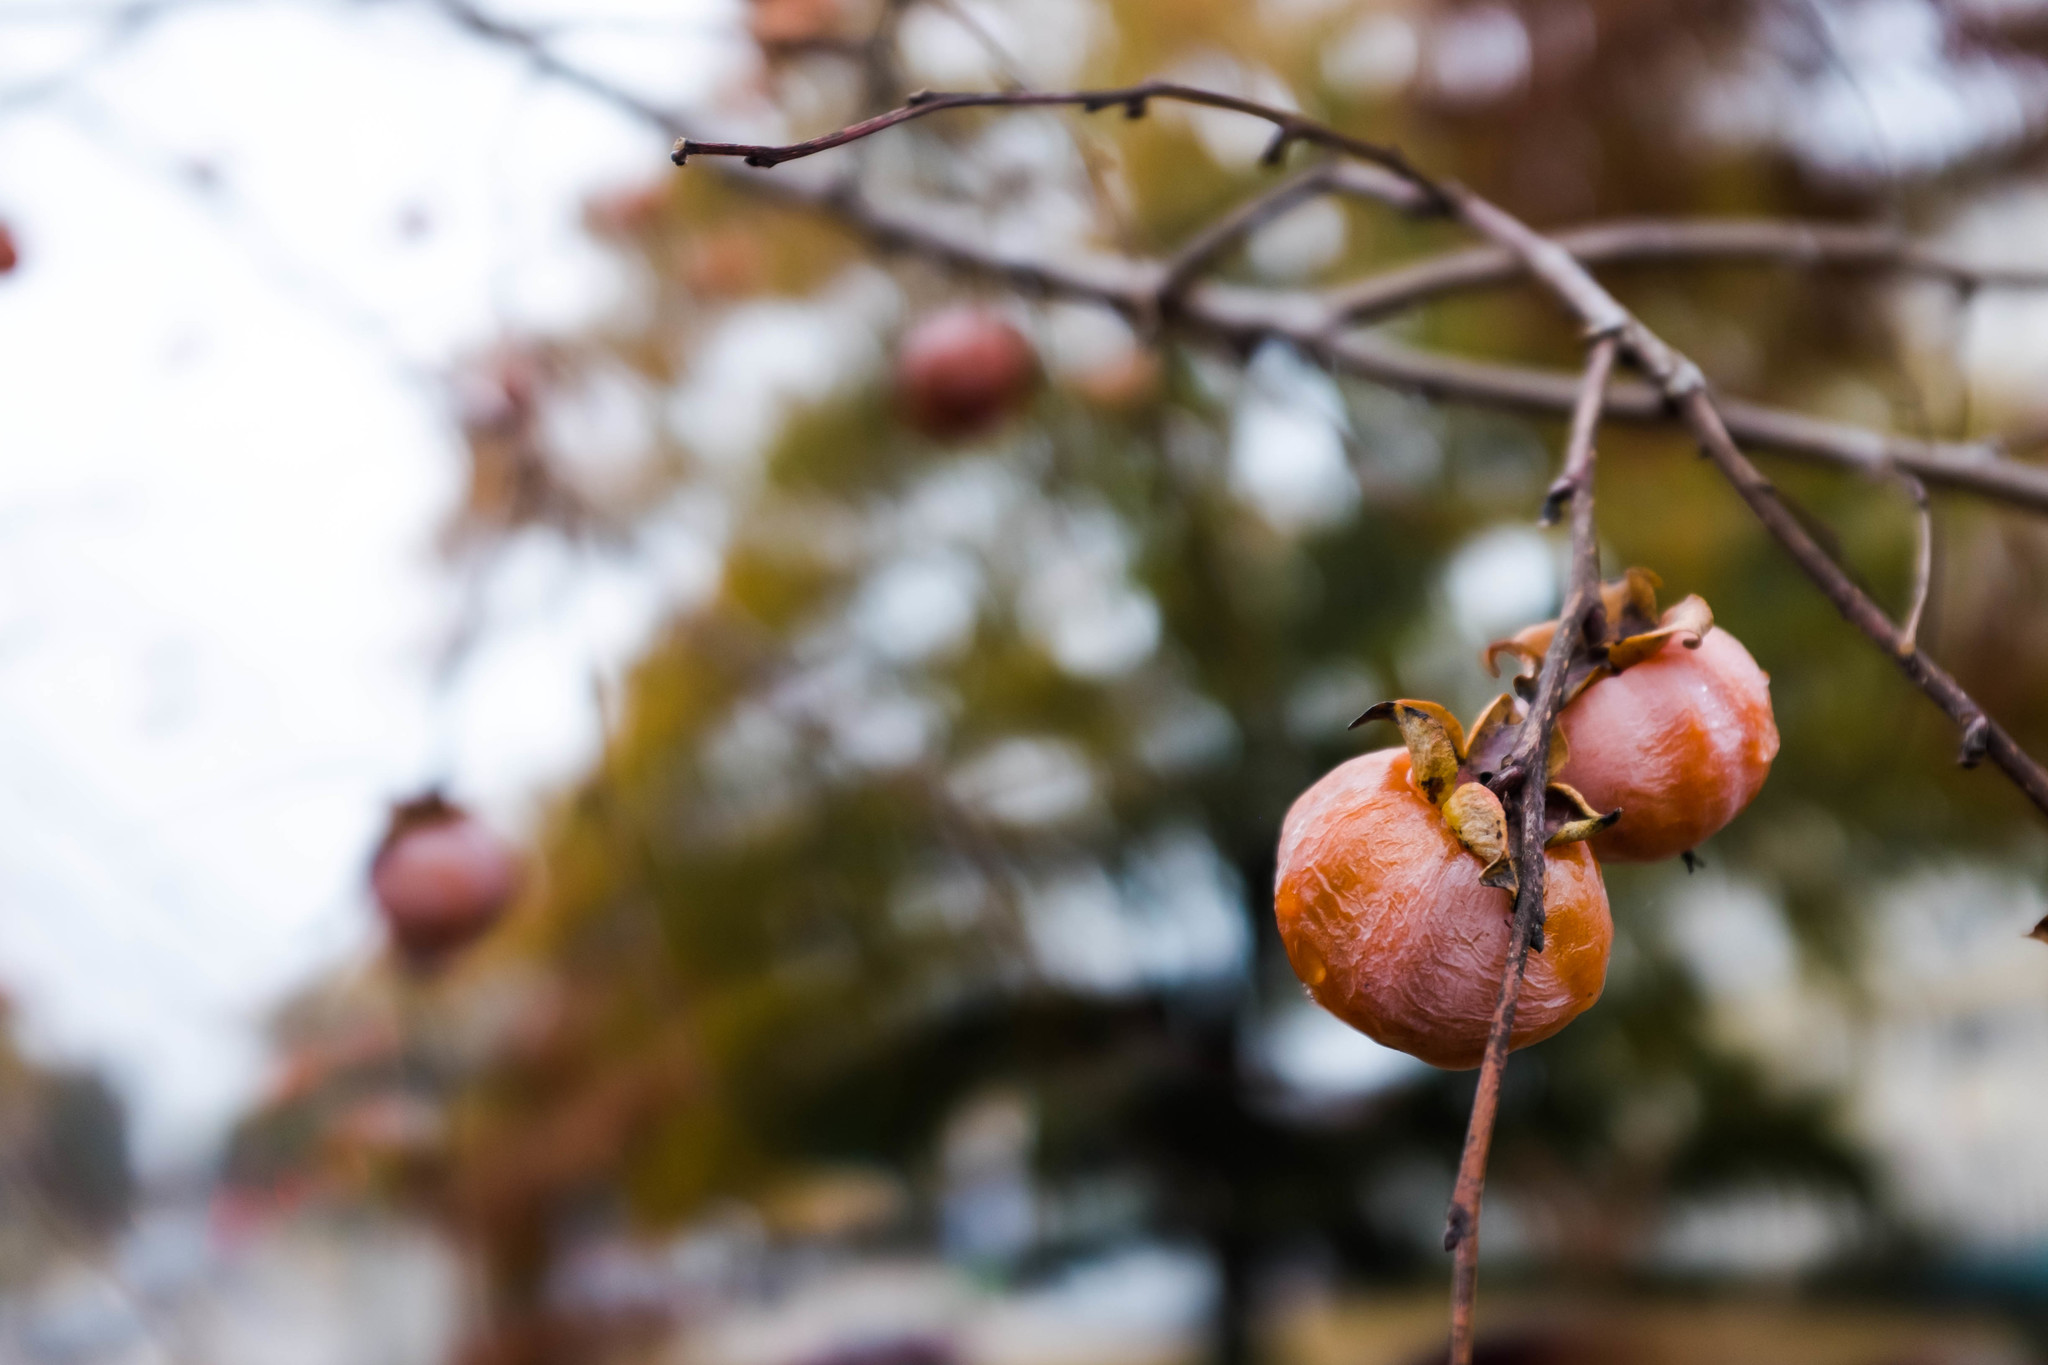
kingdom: Plantae
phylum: Tracheophyta
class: Magnoliopsida
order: Ericales
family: Ebenaceae
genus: Diospyros
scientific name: Diospyros virginiana
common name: Persimmon
